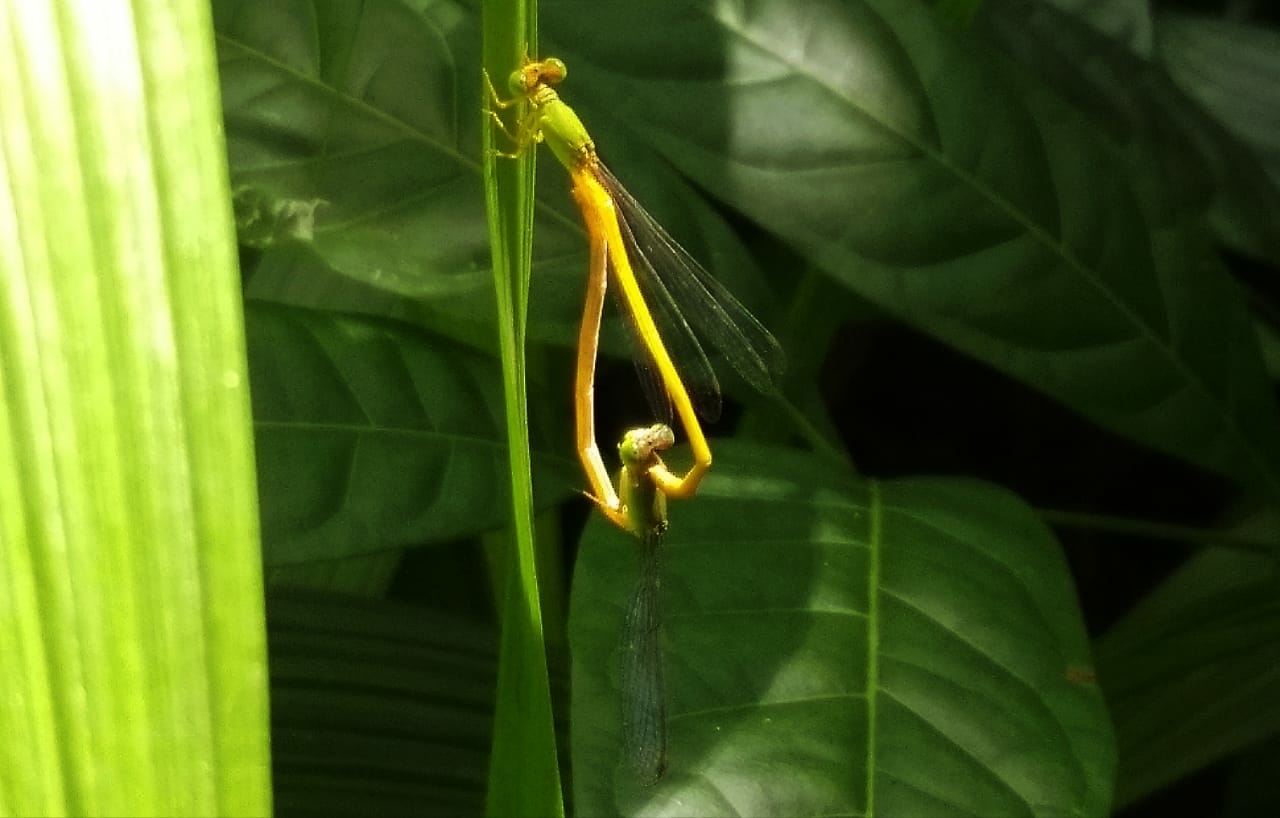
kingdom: Animalia
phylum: Arthropoda
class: Insecta
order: Odonata
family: Coenagrionidae
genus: Ceriagrion
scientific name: Ceriagrion coromandelianum
